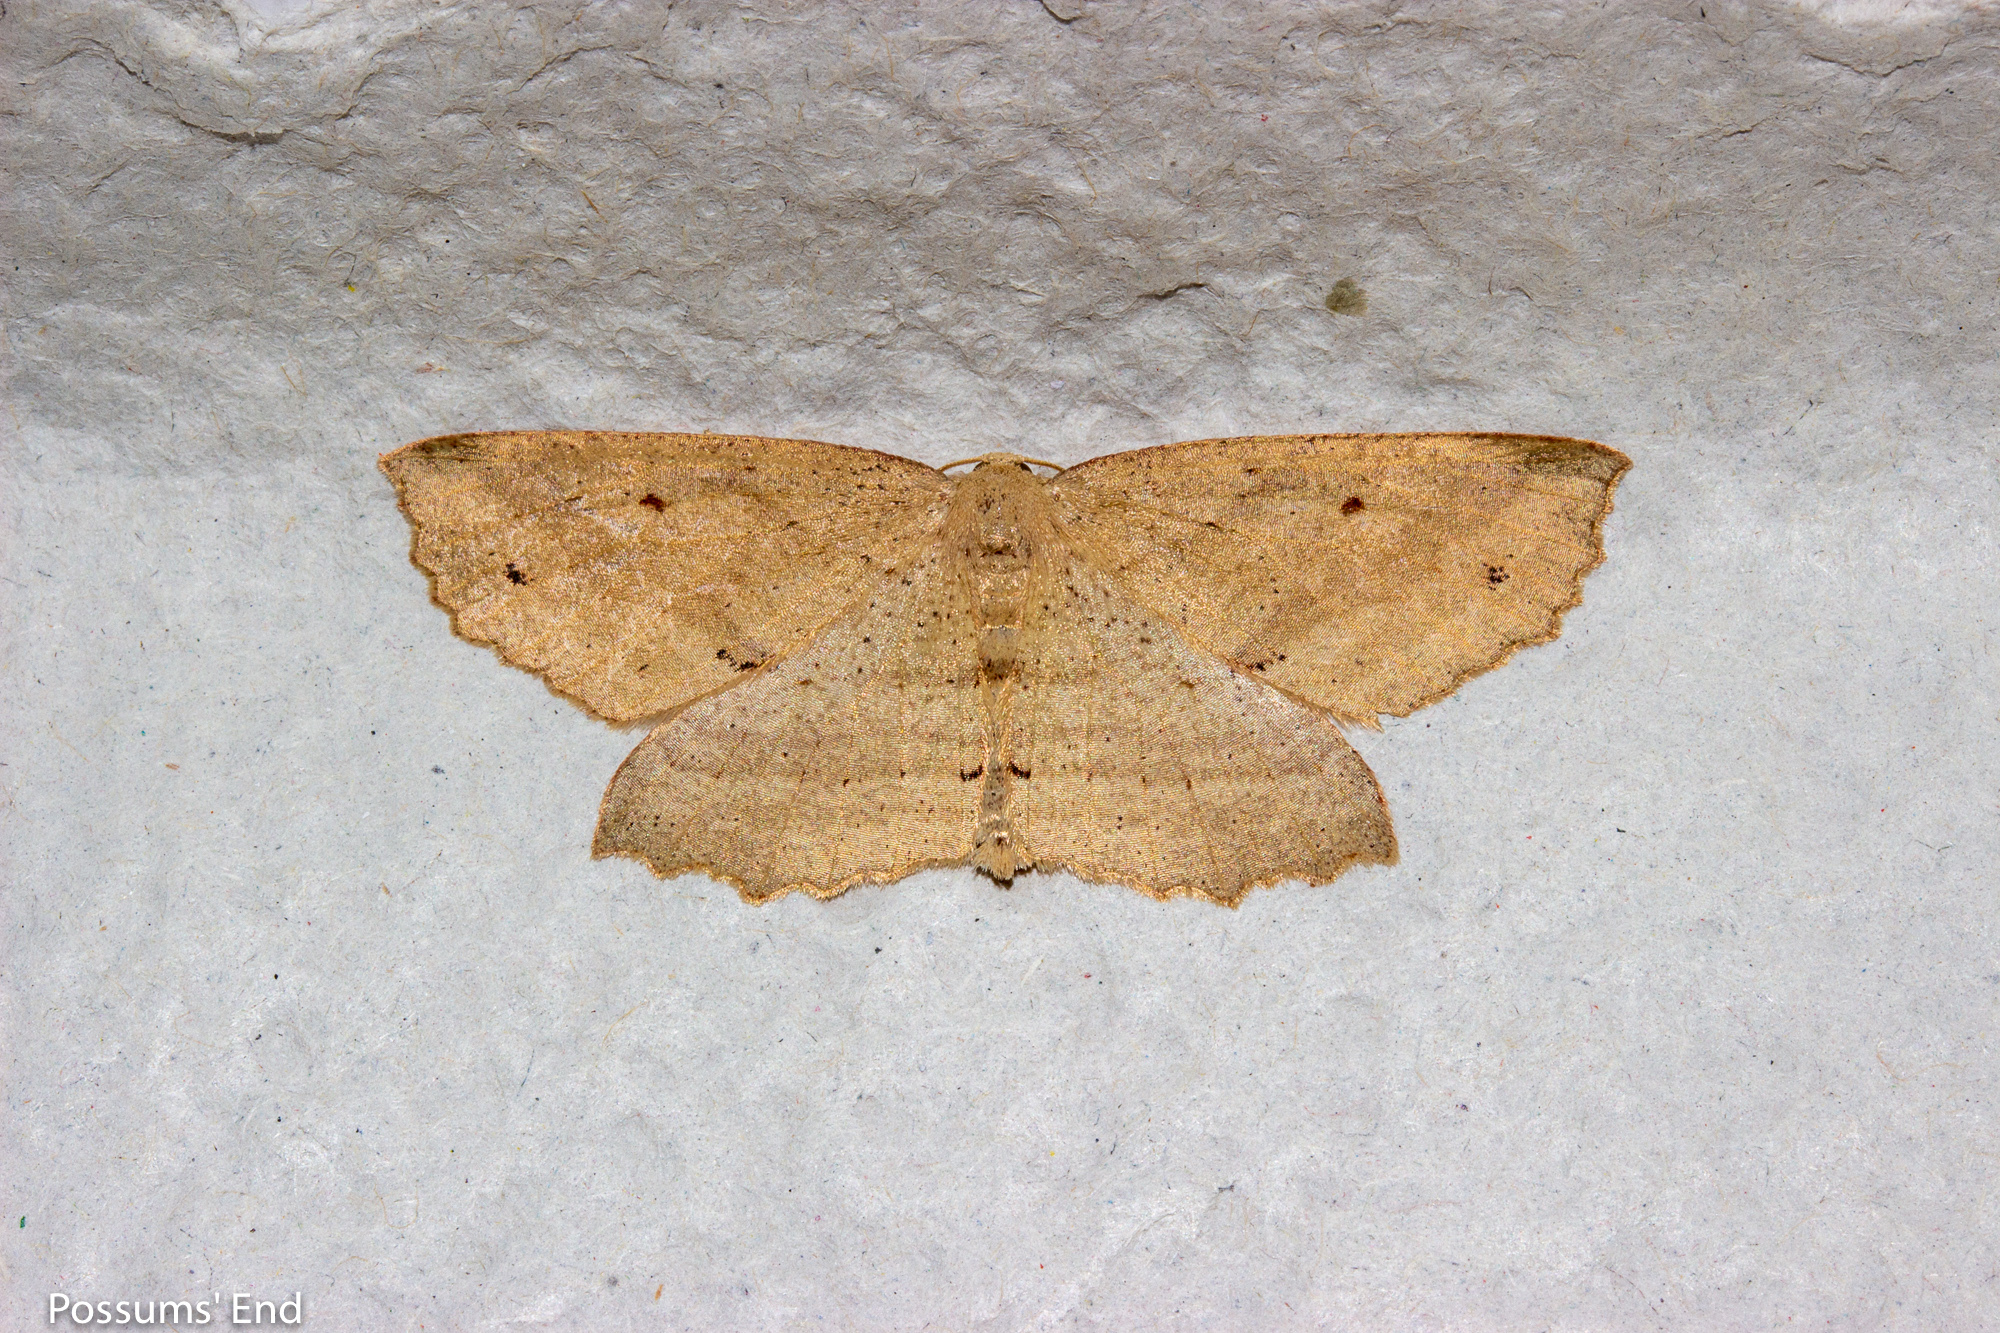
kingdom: Animalia
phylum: Arthropoda
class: Insecta
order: Lepidoptera
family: Geometridae
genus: Xyridacma
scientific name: Xyridacma veronicae
